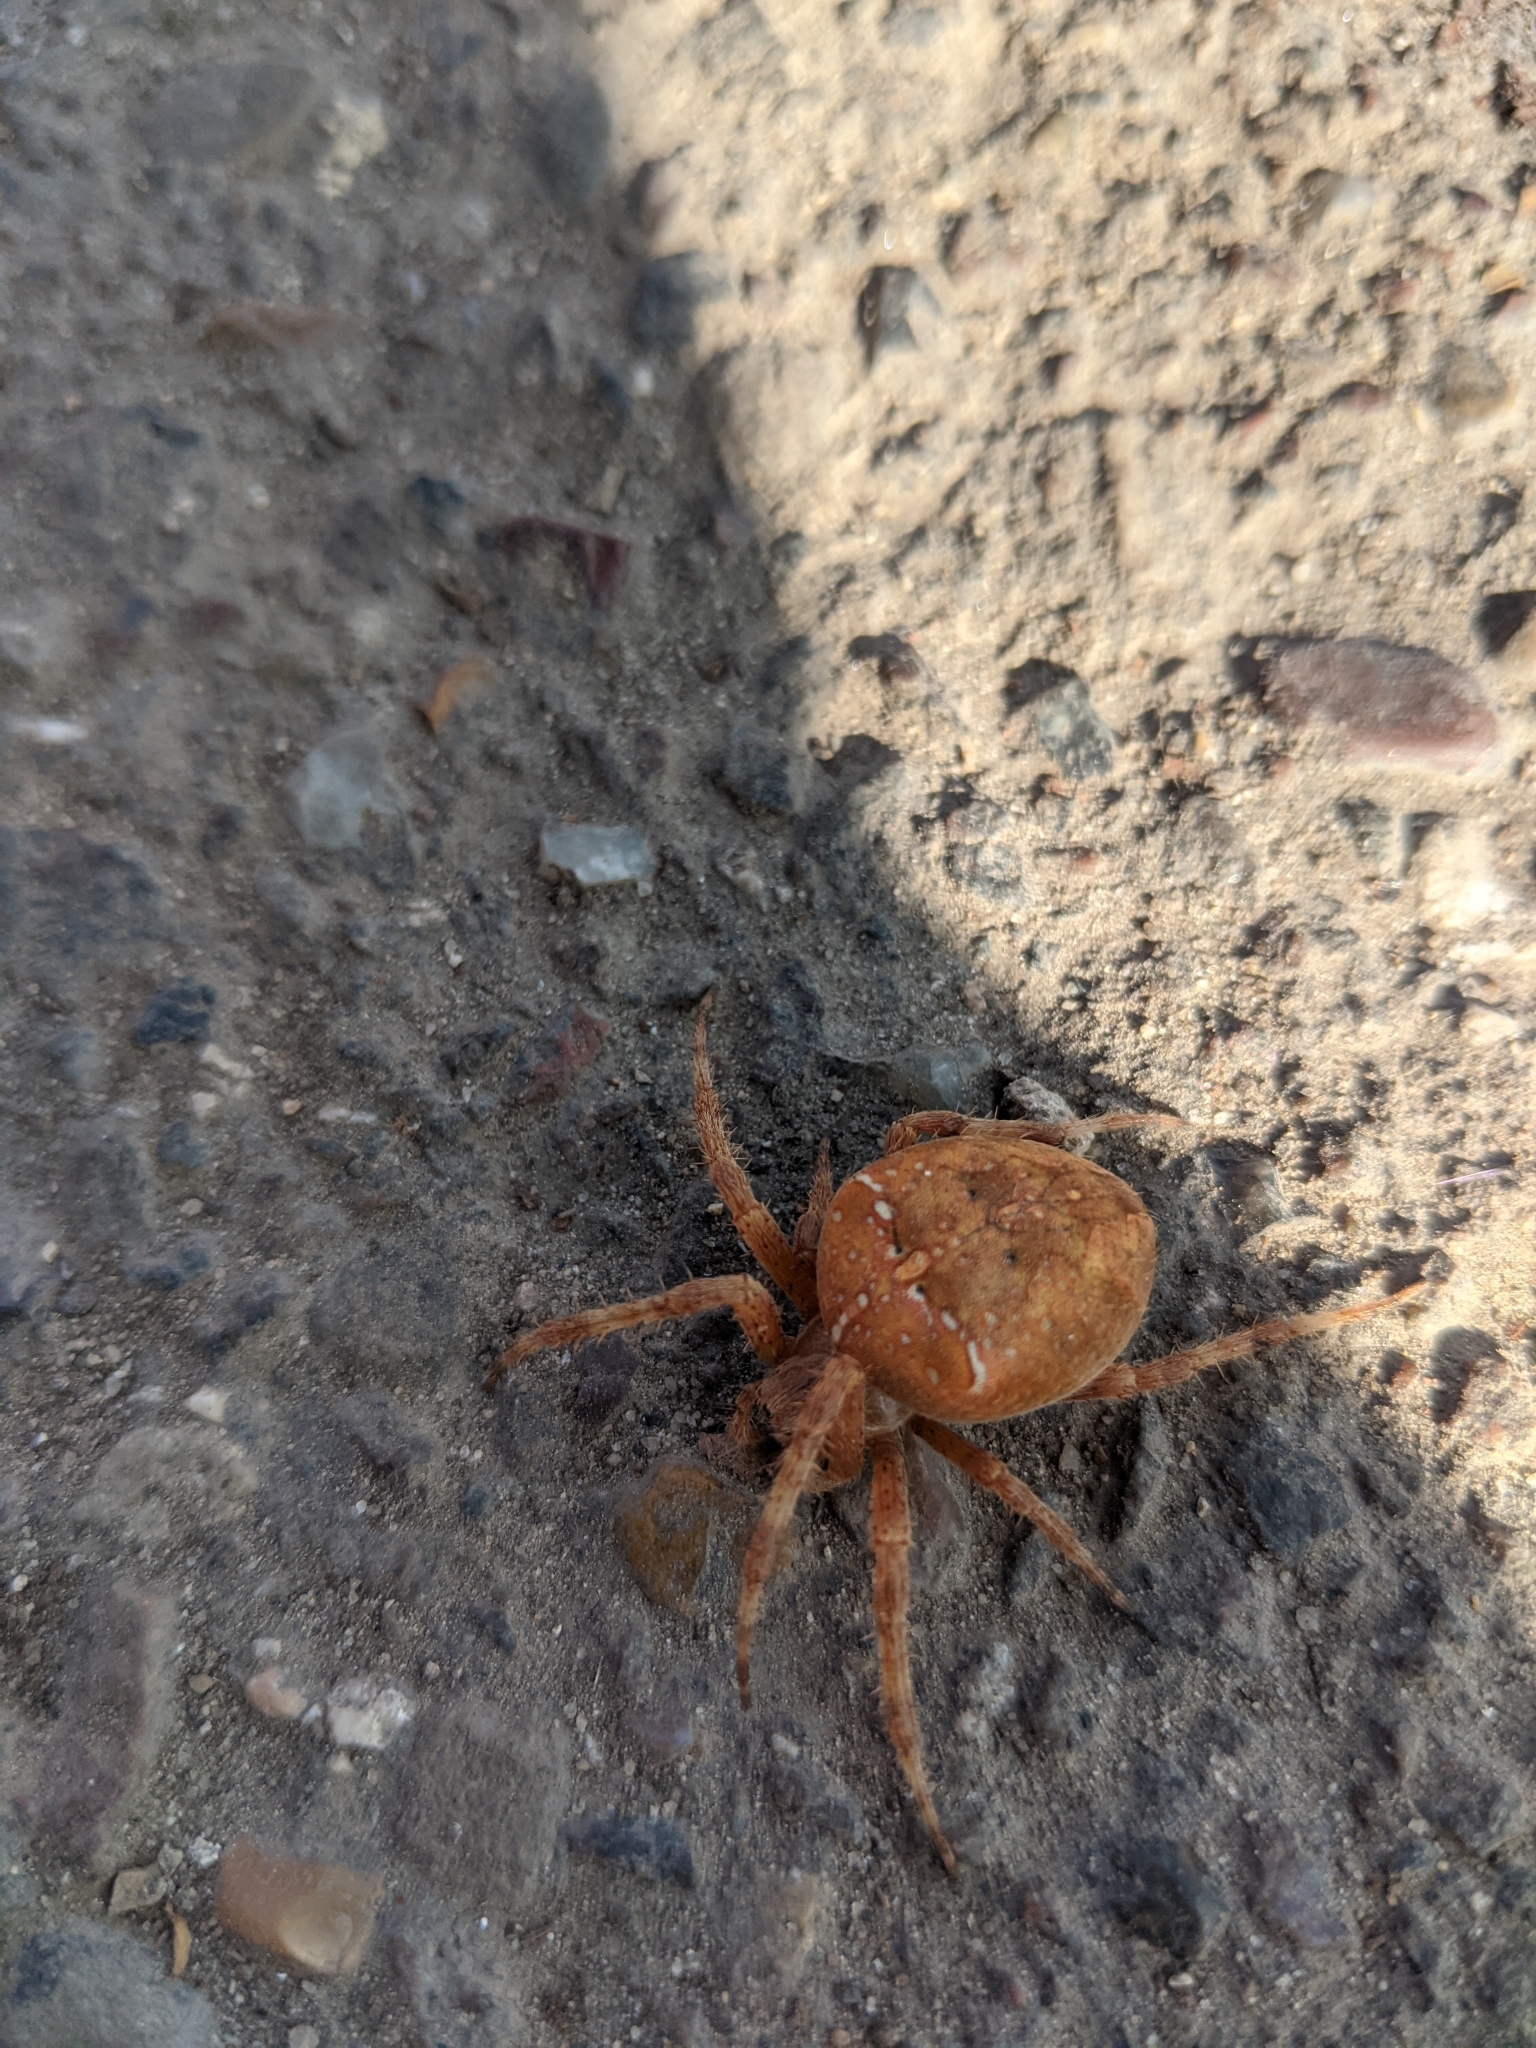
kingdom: Animalia
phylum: Arthropoda
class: Arachnida
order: Araneae
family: Araneidae
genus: Araneus
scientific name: Araneus diadematus
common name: Cross orbweaver
